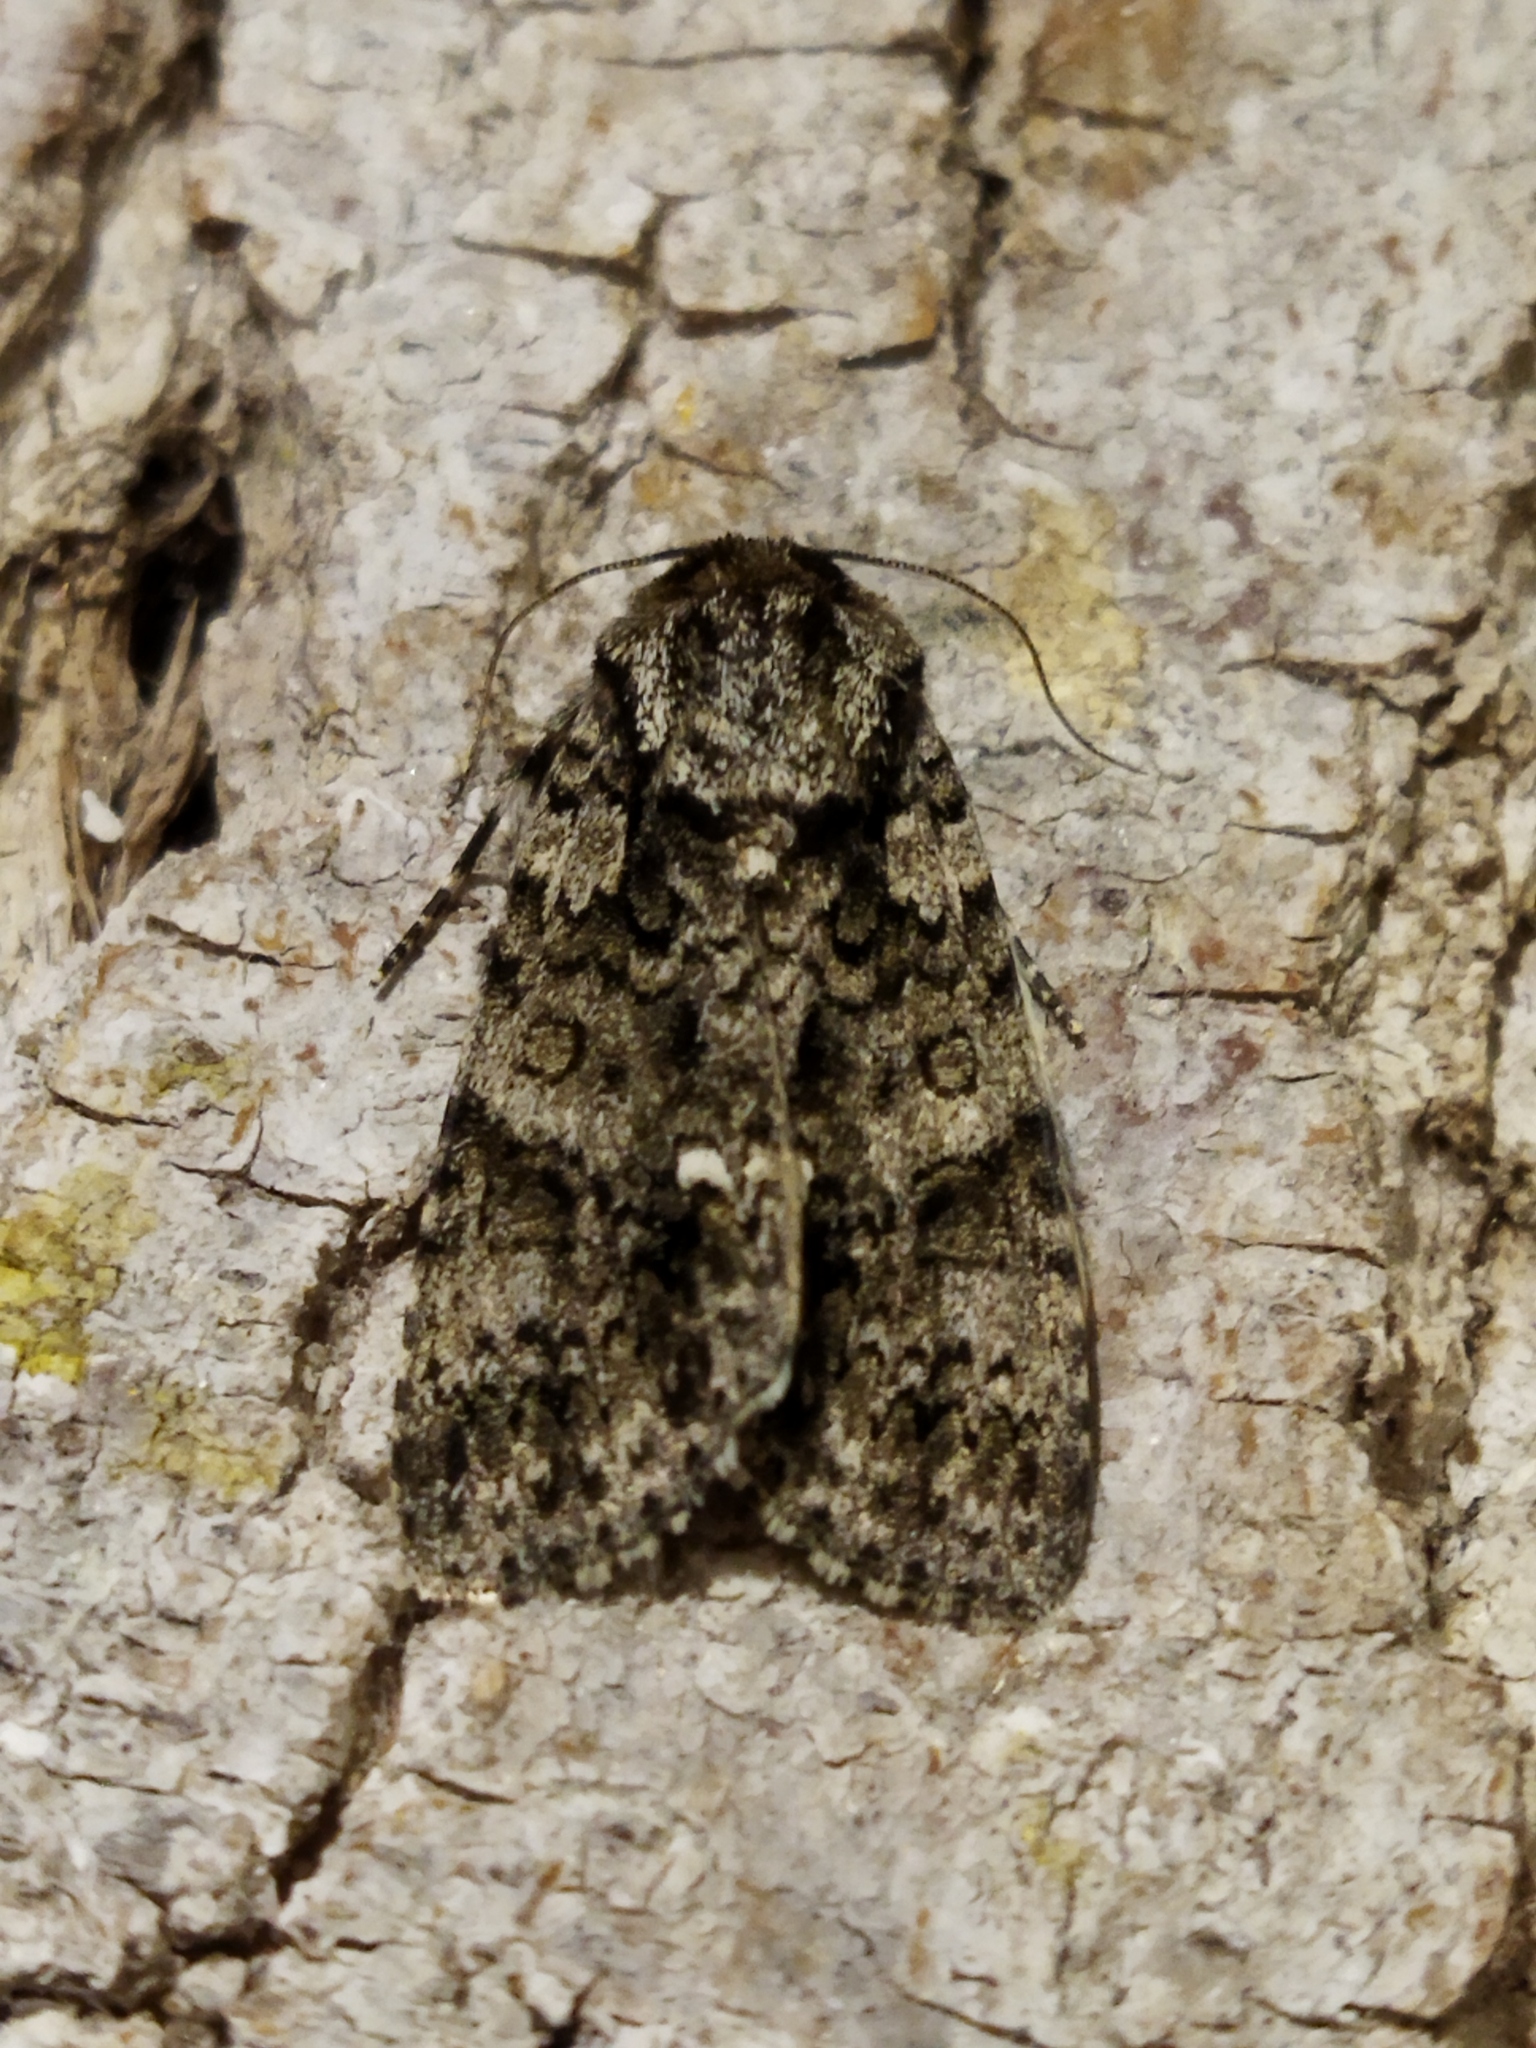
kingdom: Animalia
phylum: Arthropoda
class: Insecta
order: Lepidoptera
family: Noctuidae
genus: Acronicta
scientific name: Acronicta rumicis
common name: Knot grass
